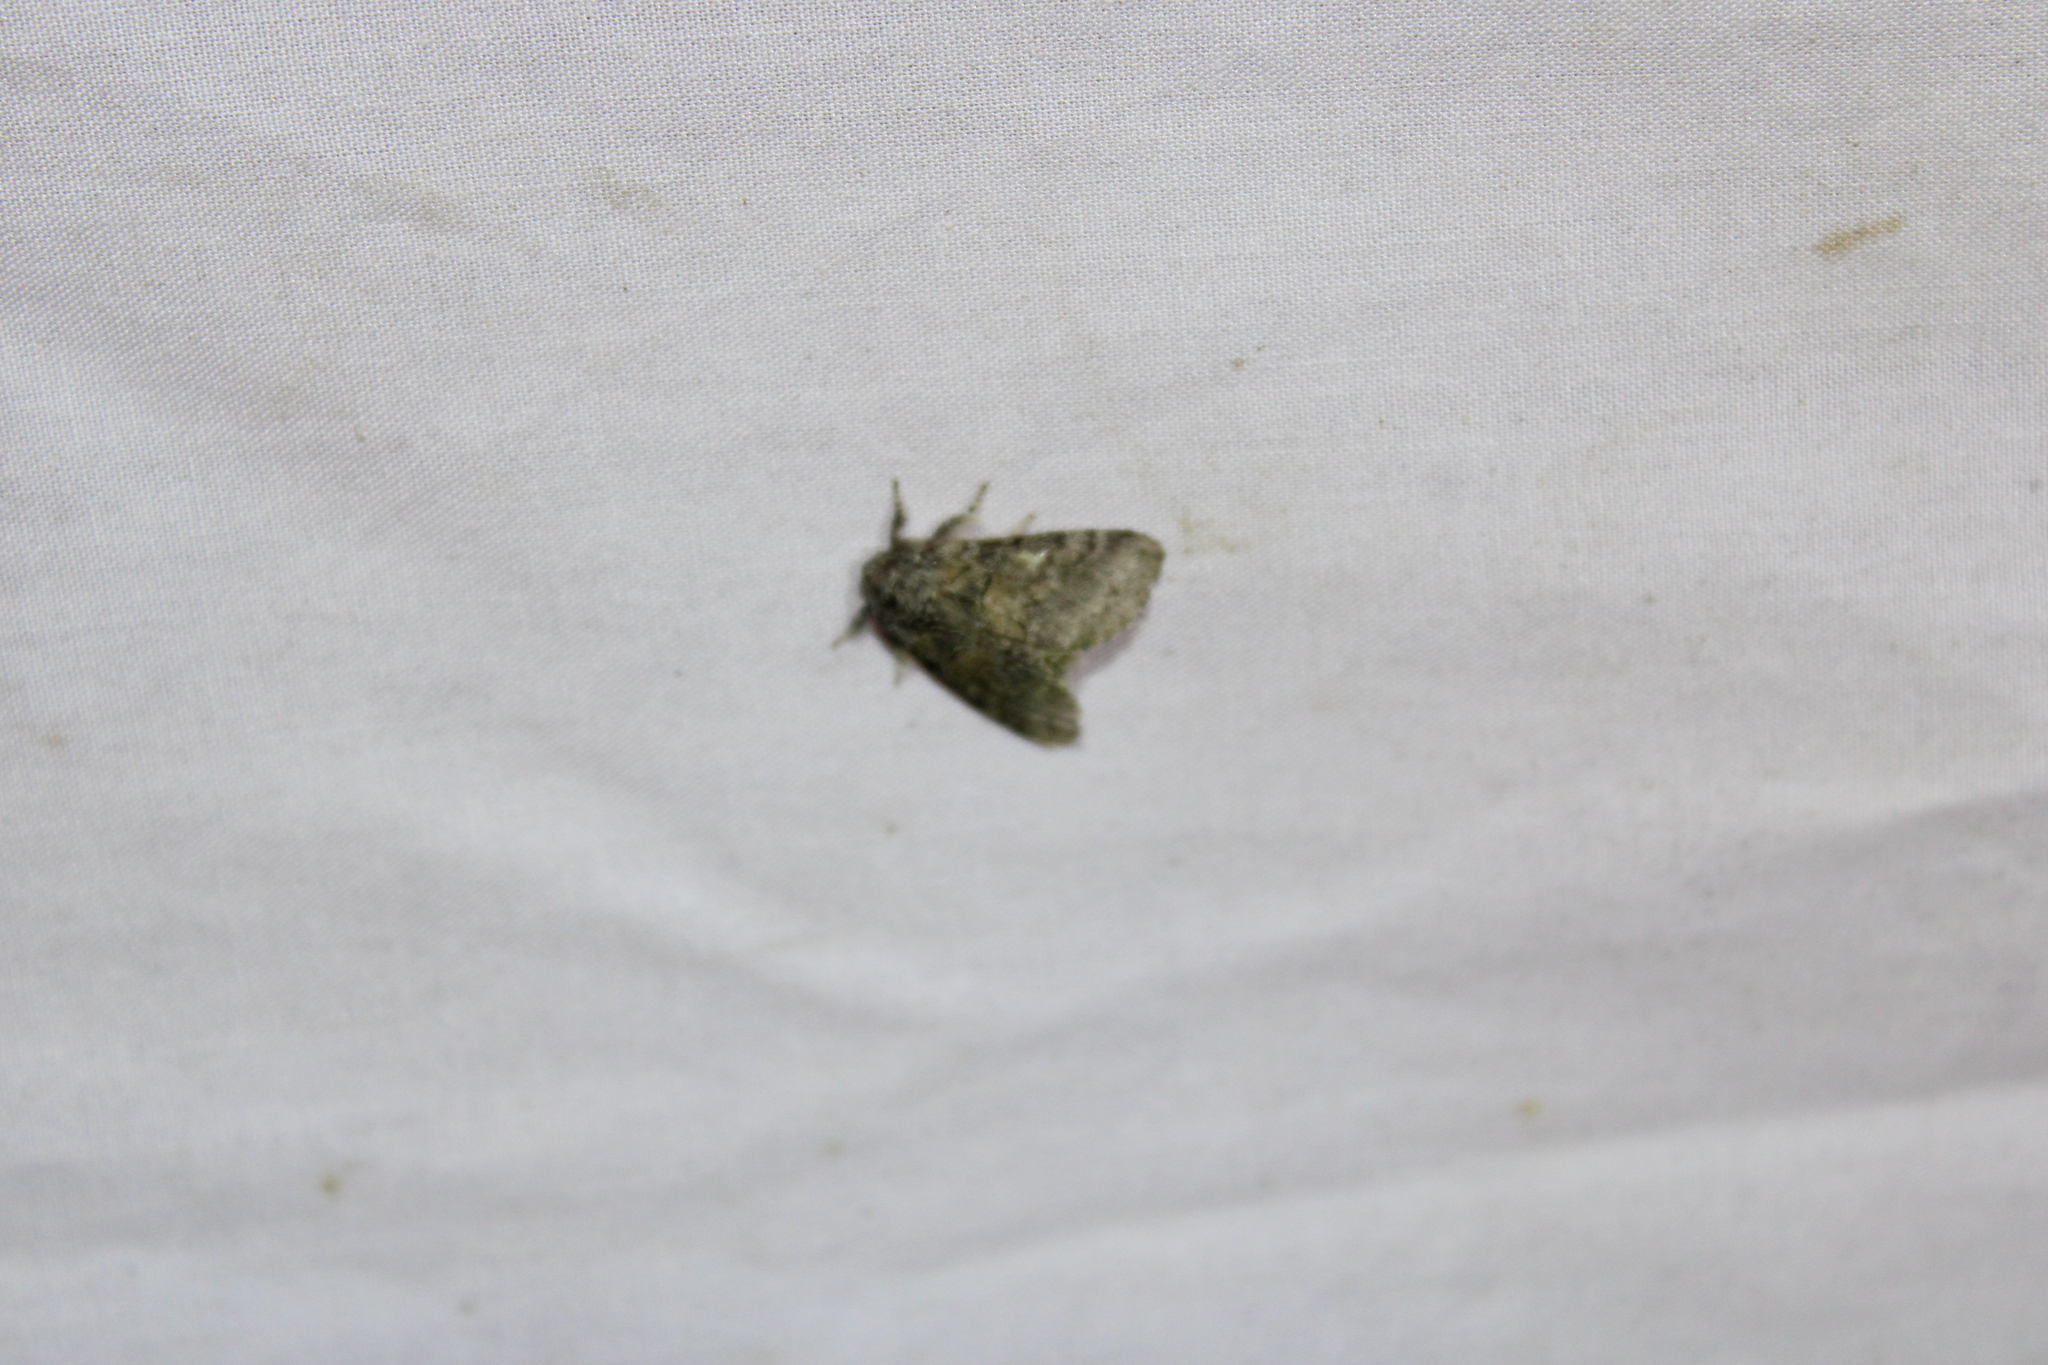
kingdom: Animalia
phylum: Arthropoda
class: Insecta
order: Lepidoptera
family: Notodontidae
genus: Gluphisia
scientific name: Gluphisia septentrionis
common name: Common gluphisia
